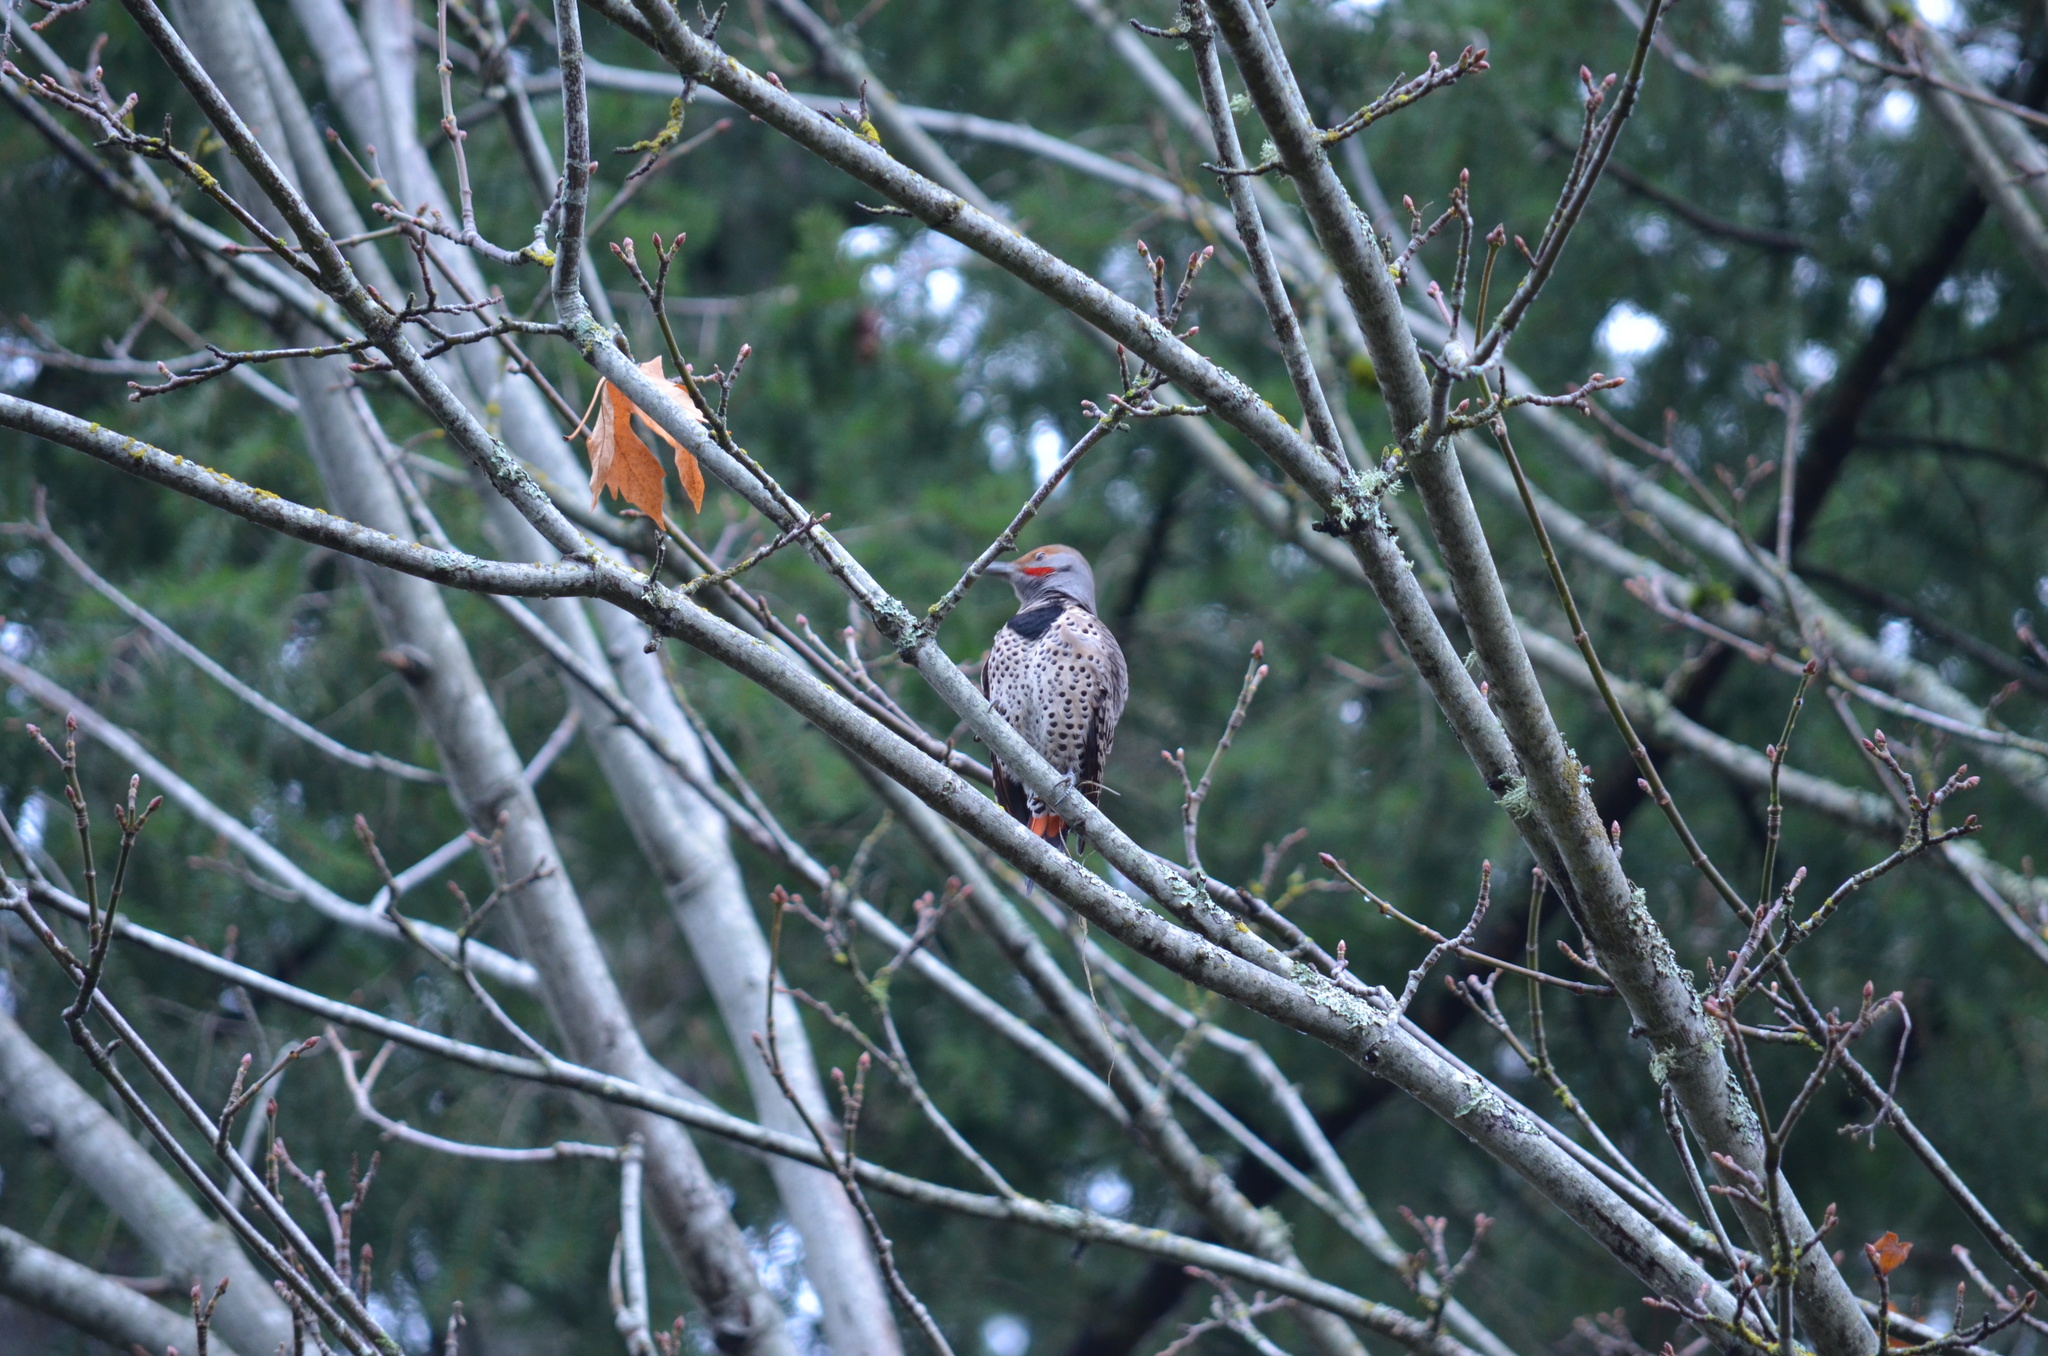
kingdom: Animalia
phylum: Chordata
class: Aves
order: Piciformes
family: Picidae
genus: Colaptes
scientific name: Colaptes auratus
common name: Northern flicker
